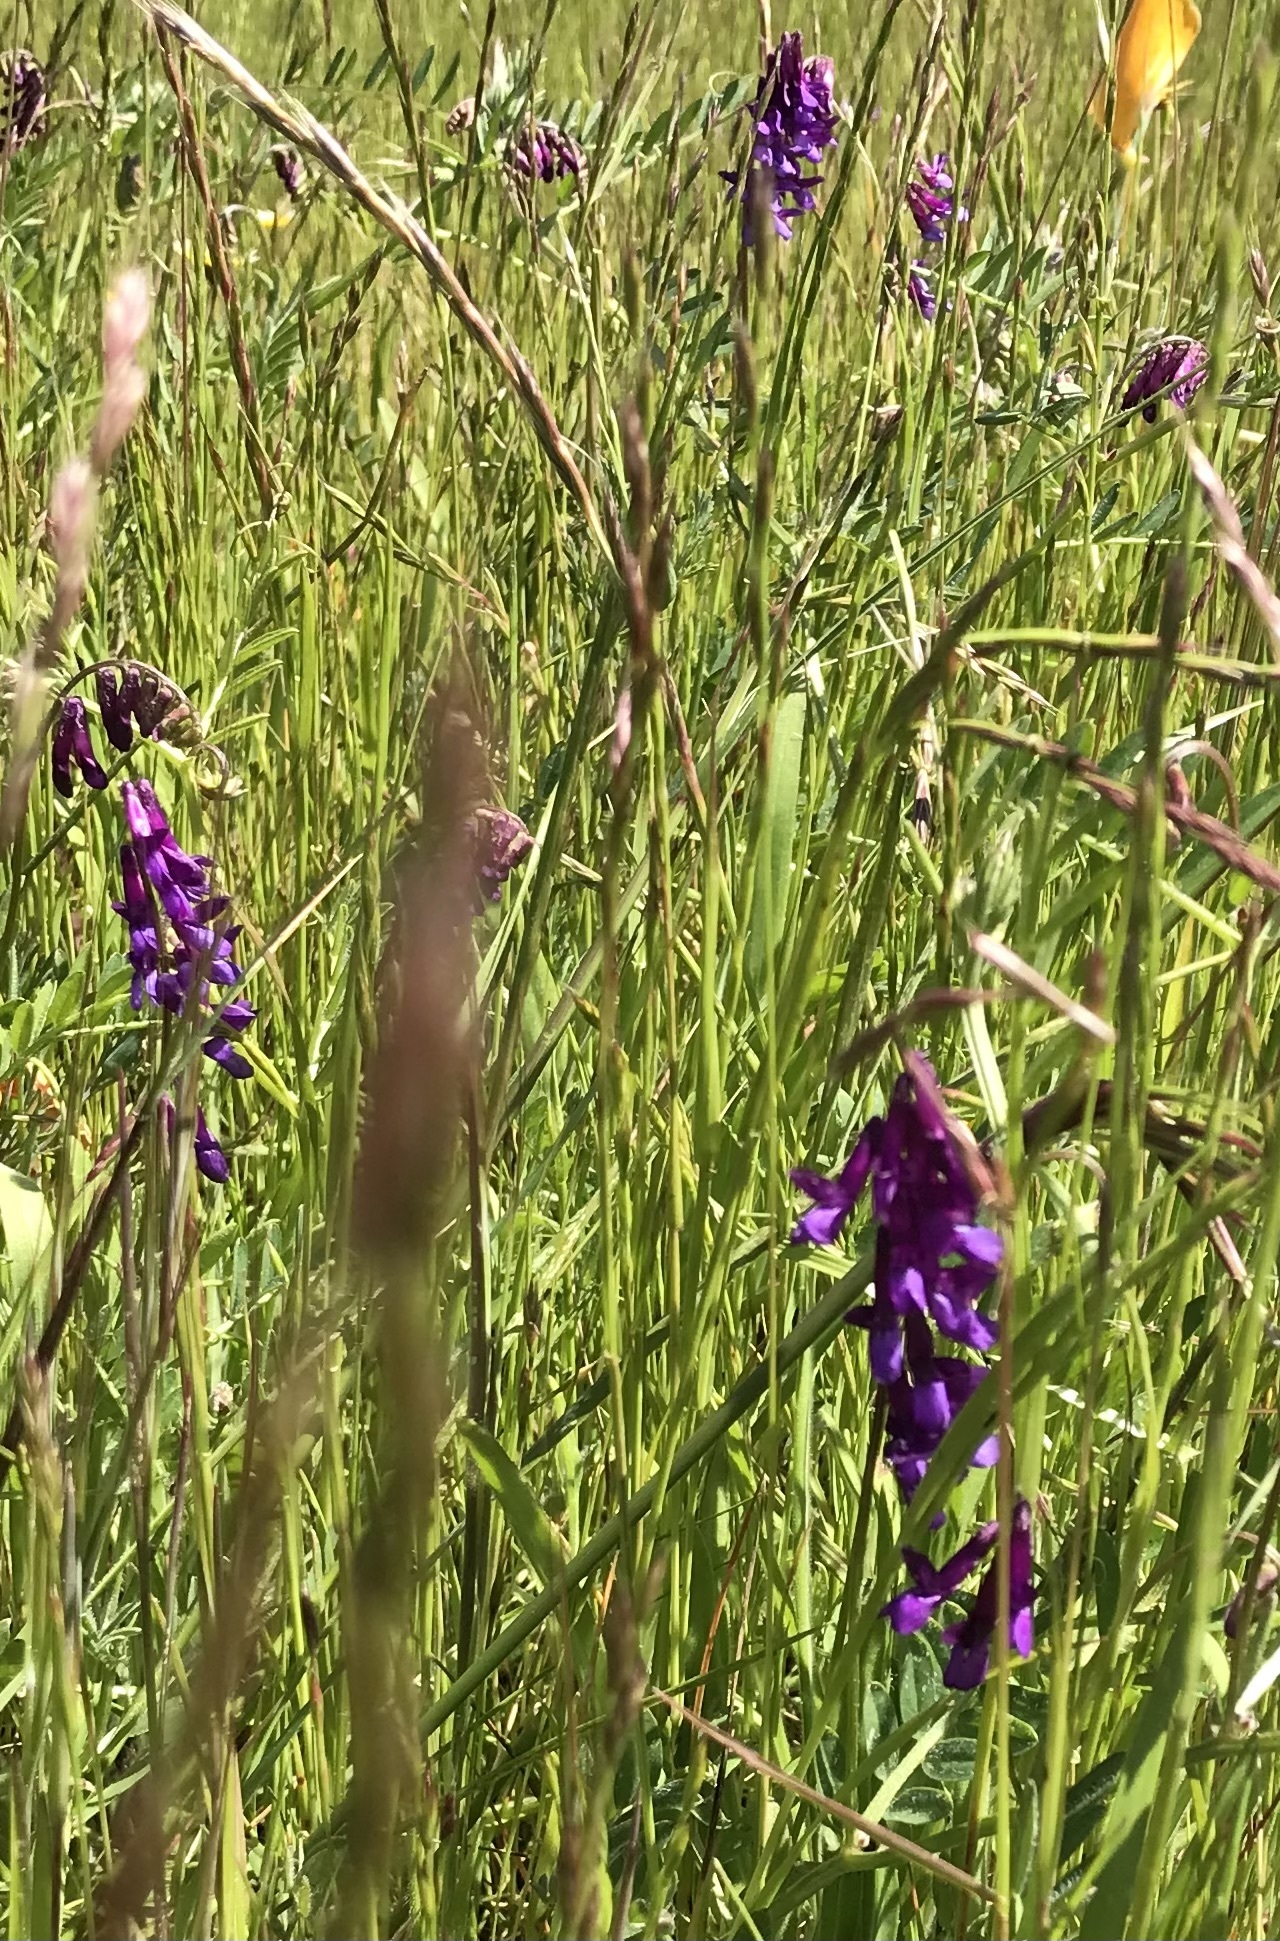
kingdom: Plantae
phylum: Tracheophyta
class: Magnoliopsida
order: Fabales
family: Fabaceae
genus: Vicia
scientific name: Vicia villosa
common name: Fodder vetch
